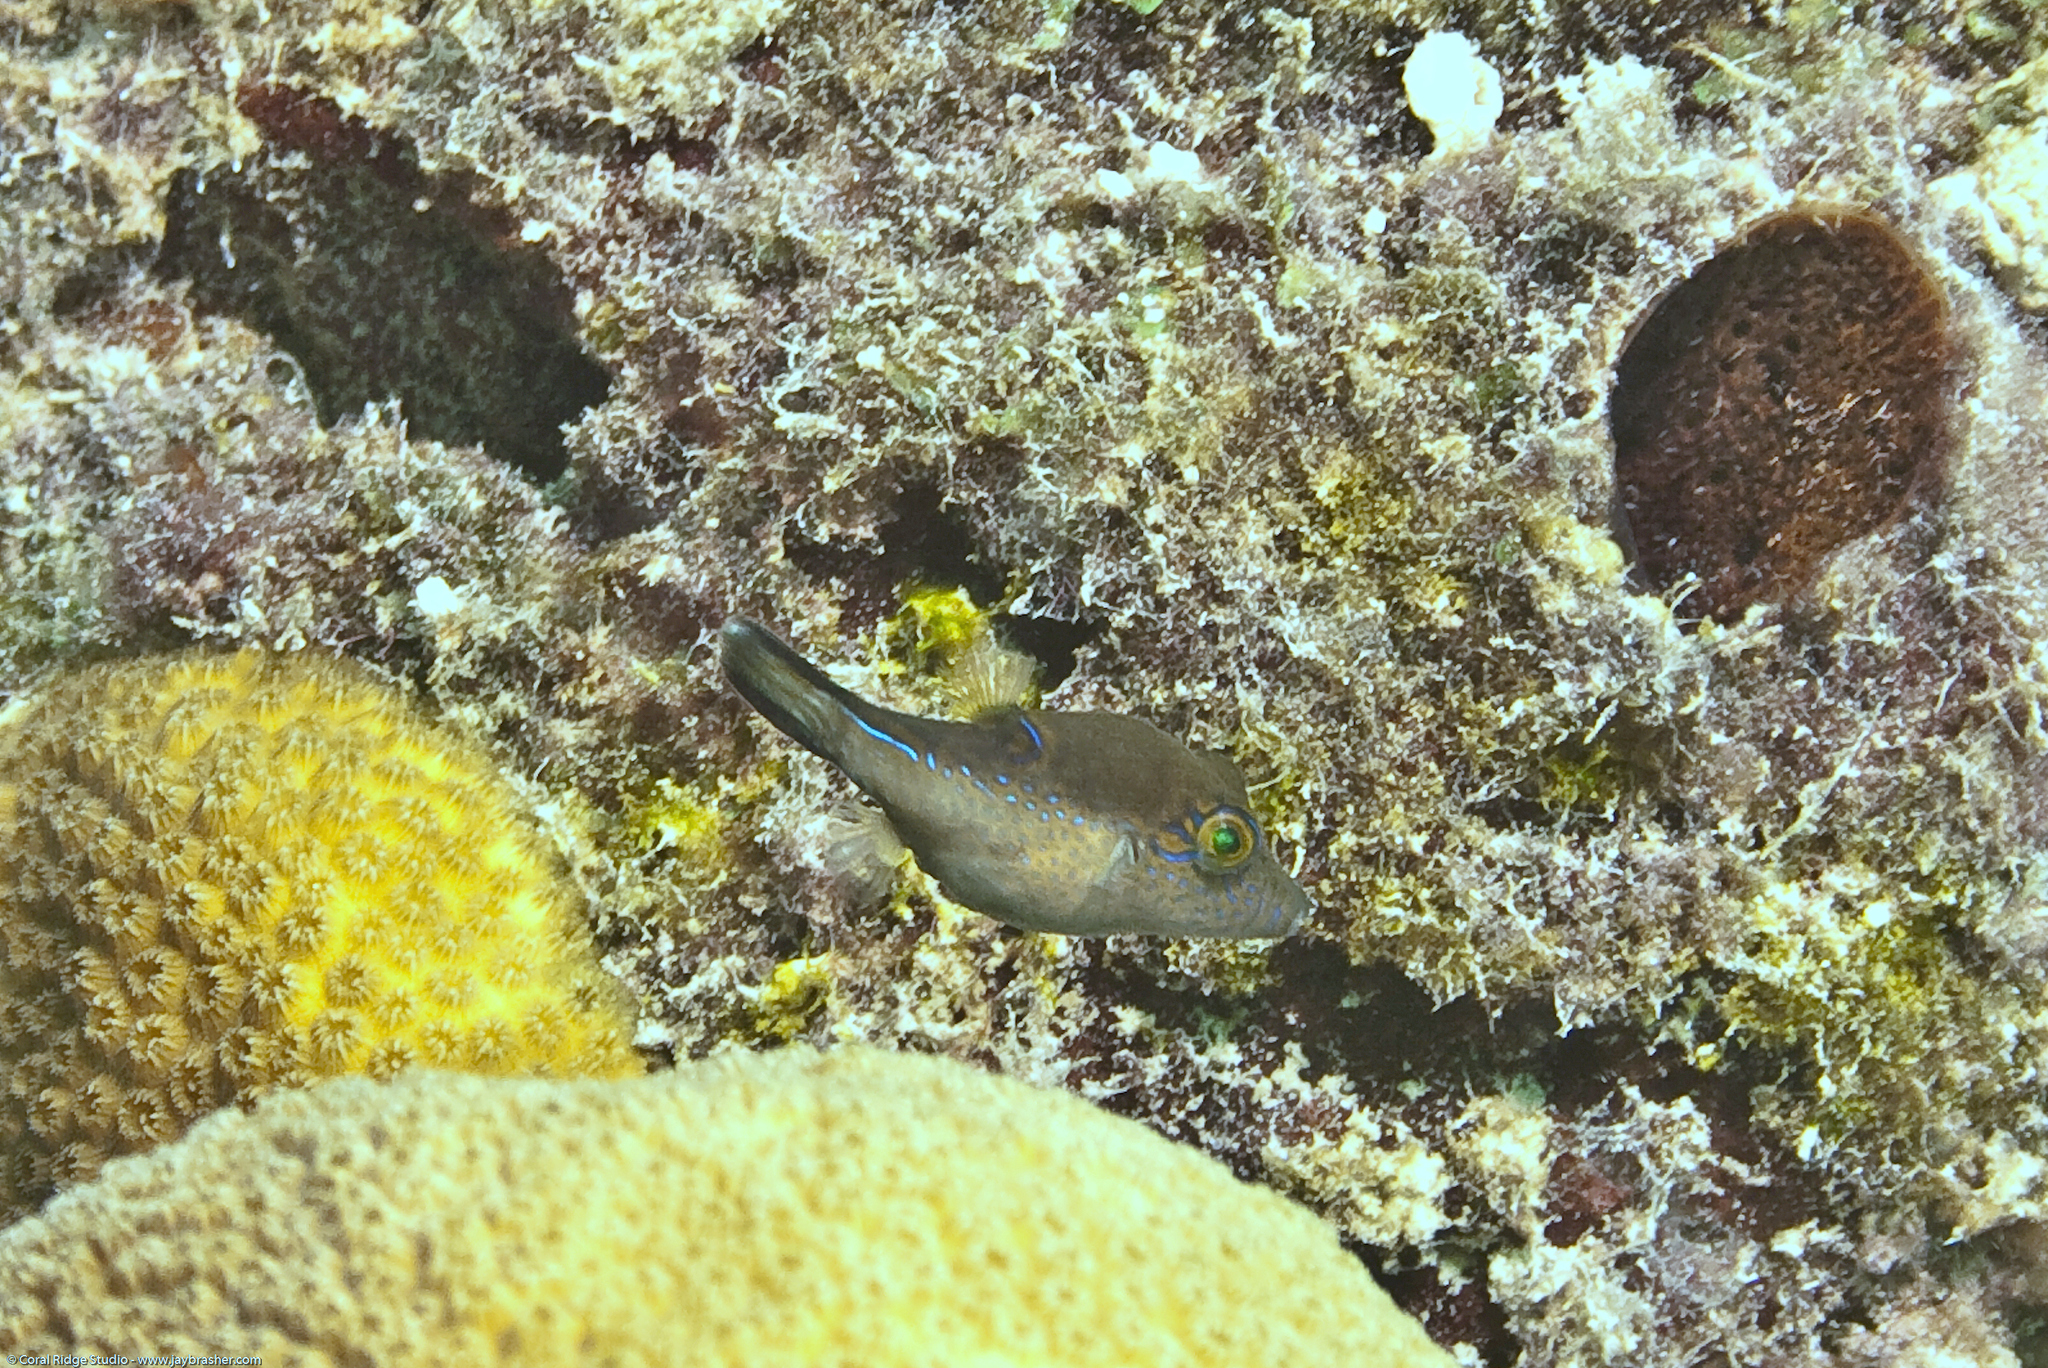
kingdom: Animalia
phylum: Chordata
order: Tetraodontiformes
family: Tetraodontidae
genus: Canthigaster
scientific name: Canthigaster rostrata
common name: Caribbean sharpnose-puffer
